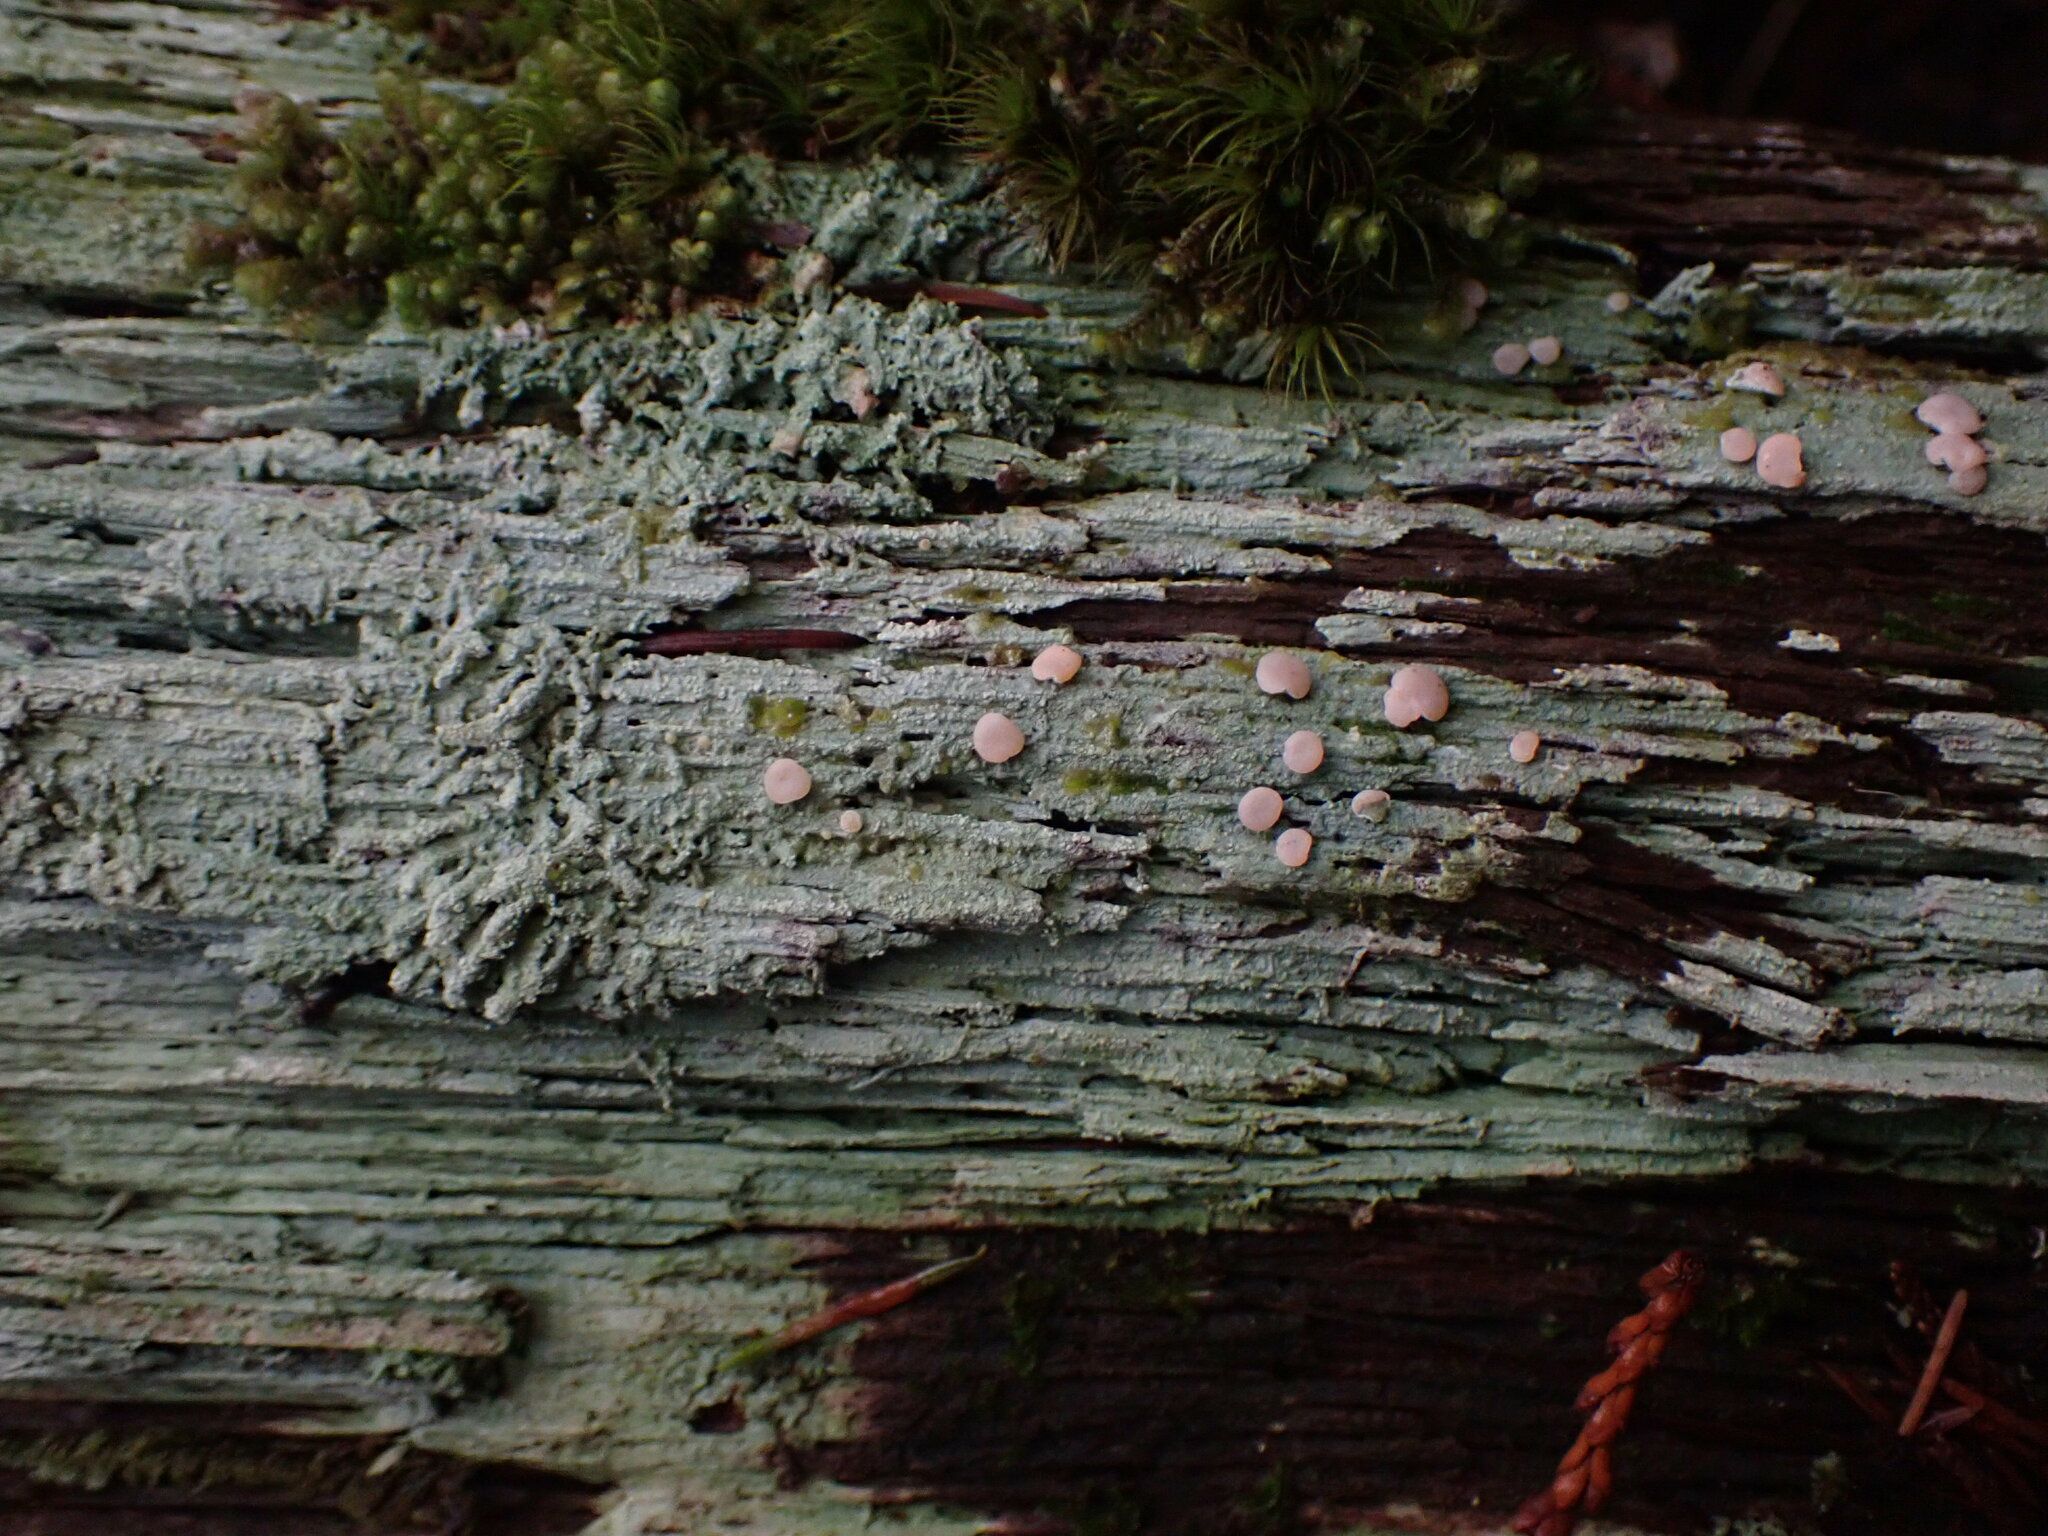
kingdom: Fungi
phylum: Ascomycota
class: Lecanoromycetes
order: Pertusariales
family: Icmadophilaceae
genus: Icmadophila
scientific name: Icmadophila ericetorum
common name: Candy lichen
